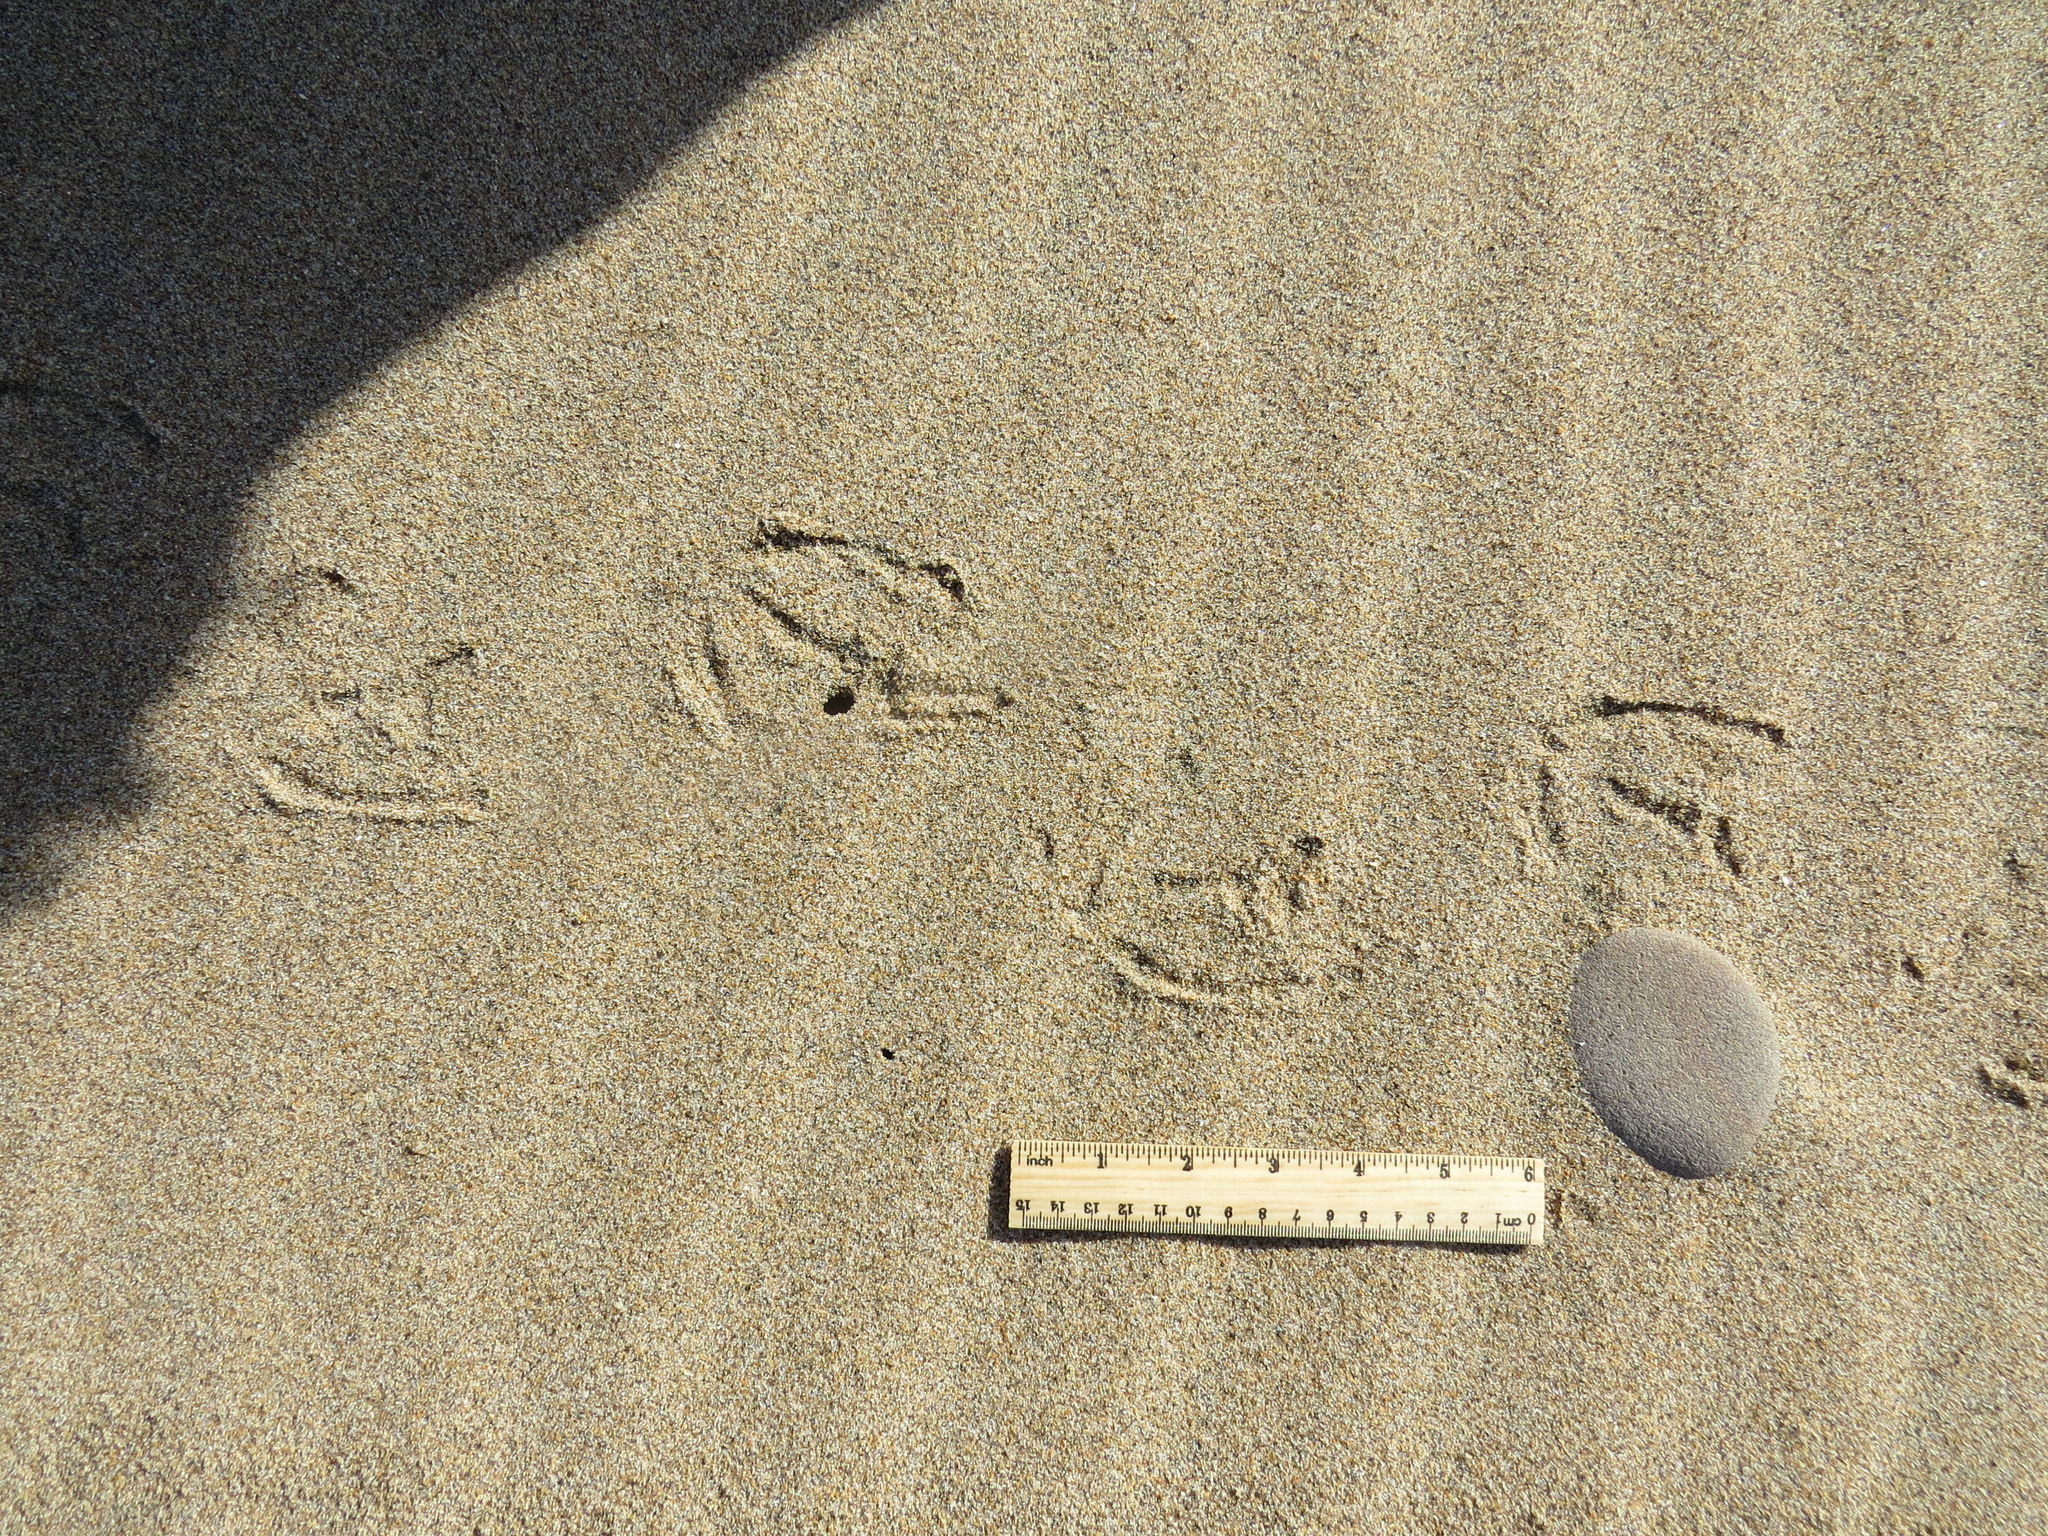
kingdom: Animalia
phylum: Chordata
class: Aves
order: Anseriformes
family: Anatidae
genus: Bucephala
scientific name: Bucephala clangula
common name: Common goldeneye
